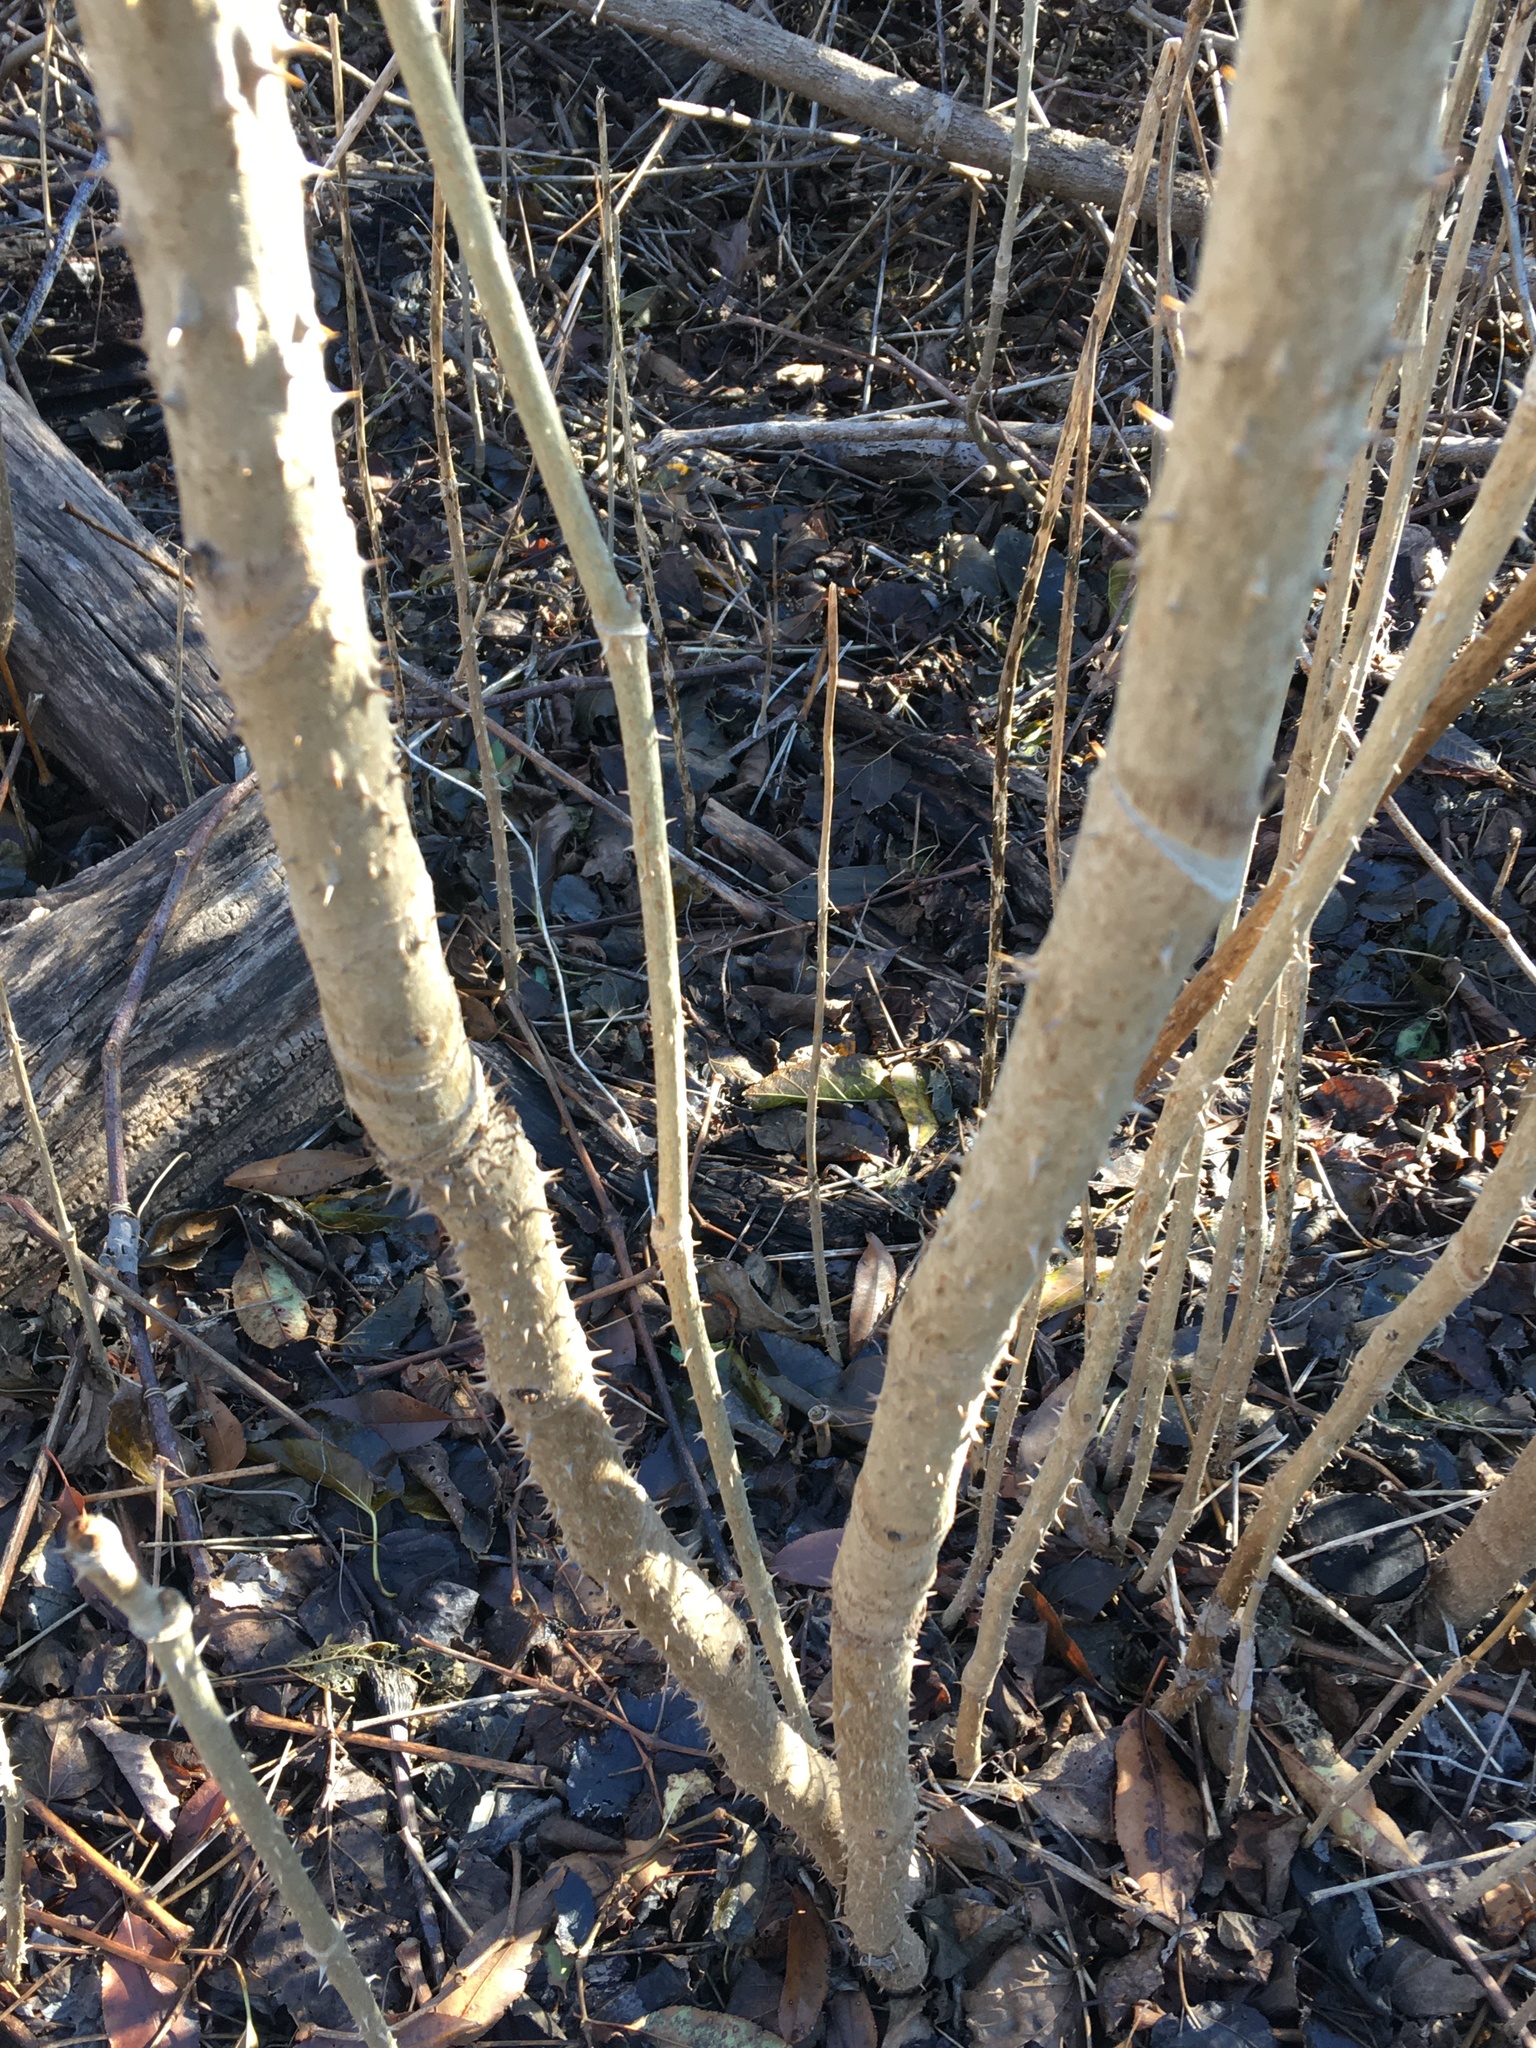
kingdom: Plantae
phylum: Tracheophyta
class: Magnoliopsida
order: Apiales
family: Araliaceae
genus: Aralia
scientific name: Aralia elata
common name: Japanese angelica-tree
